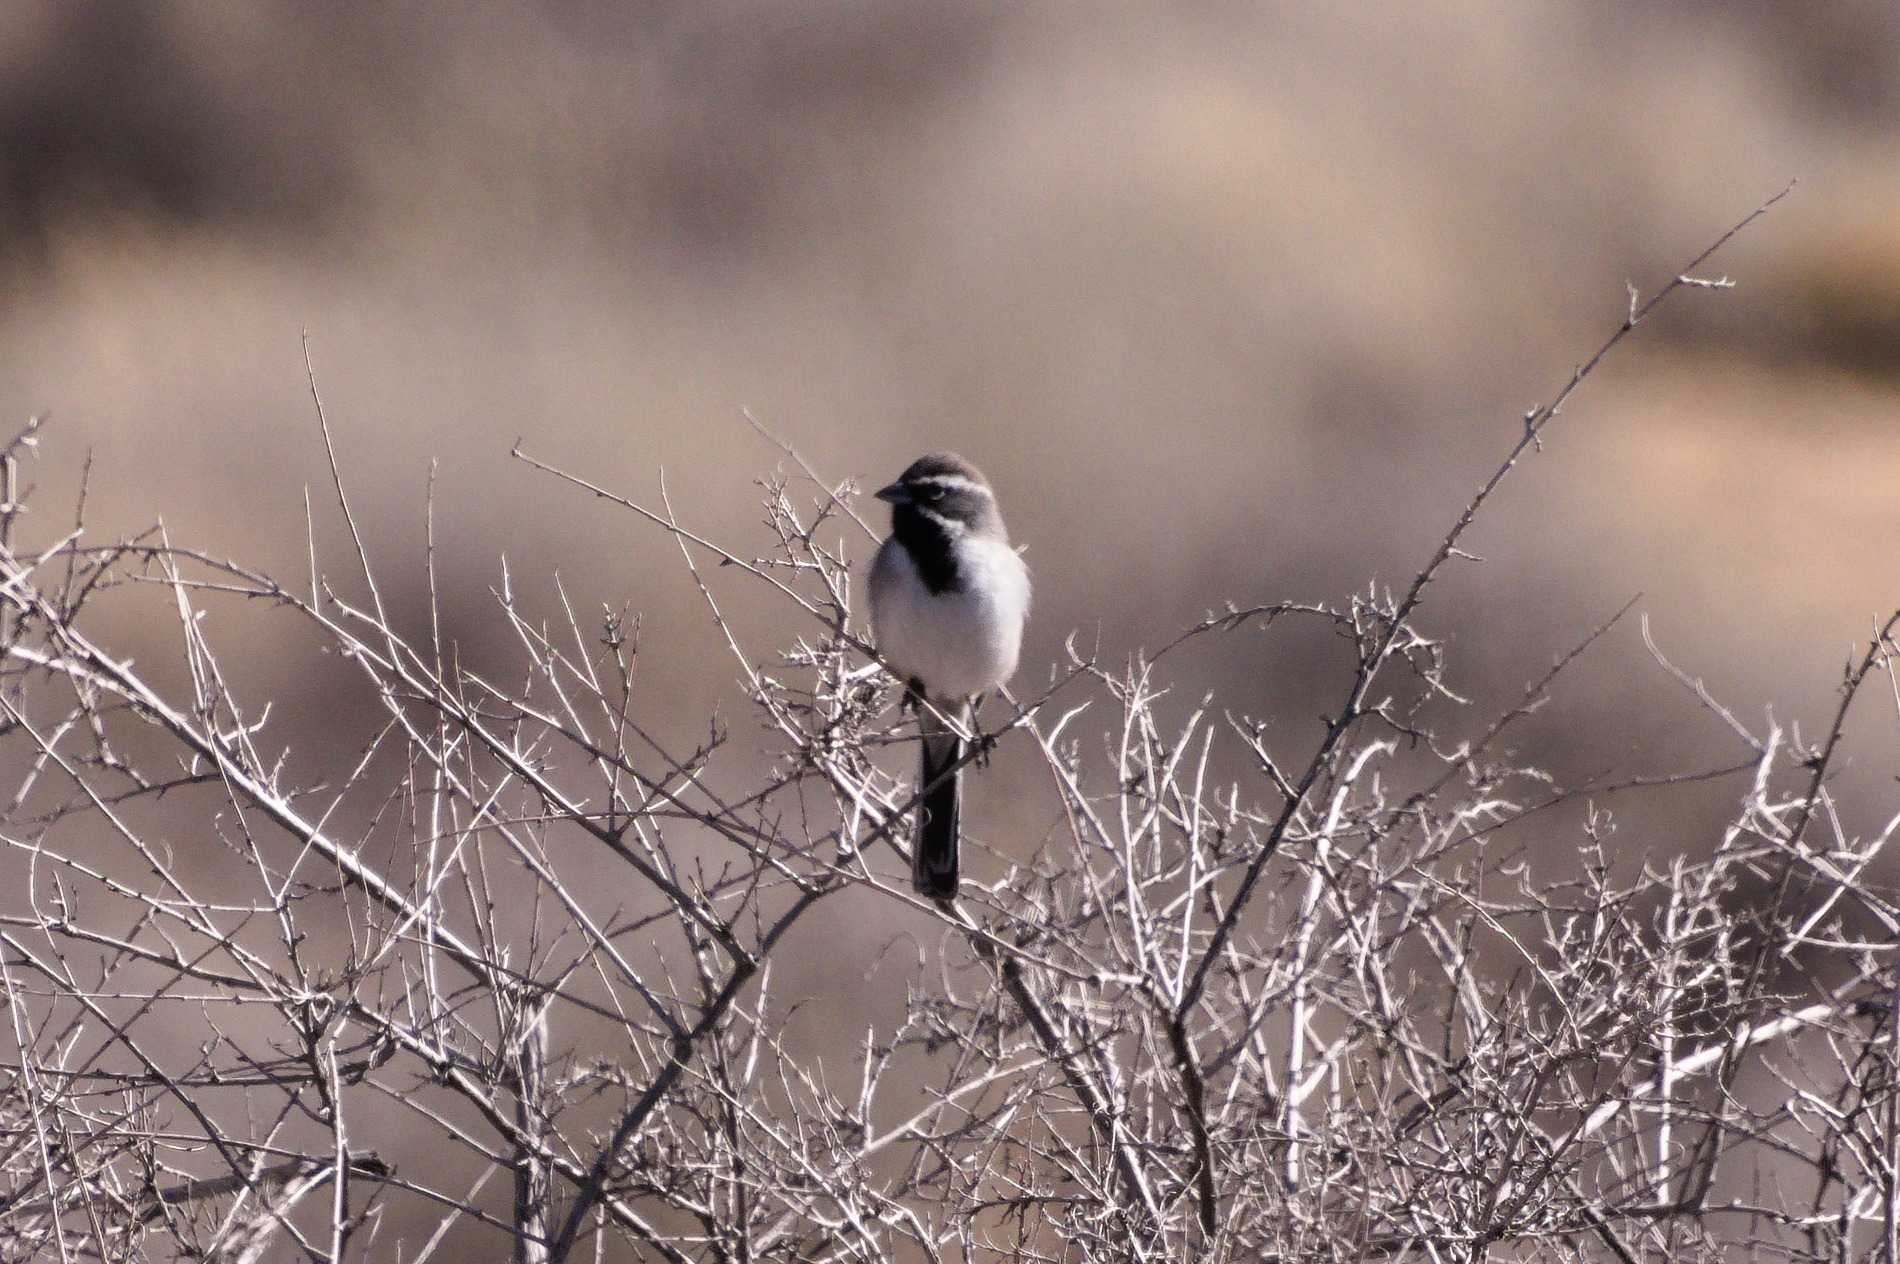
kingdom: Animalia
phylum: Chordata
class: Aves
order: Passeriformes
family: Passerellidae
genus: Amphispiza
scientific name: Amphispiza bilineata
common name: Black-throated sparrow
